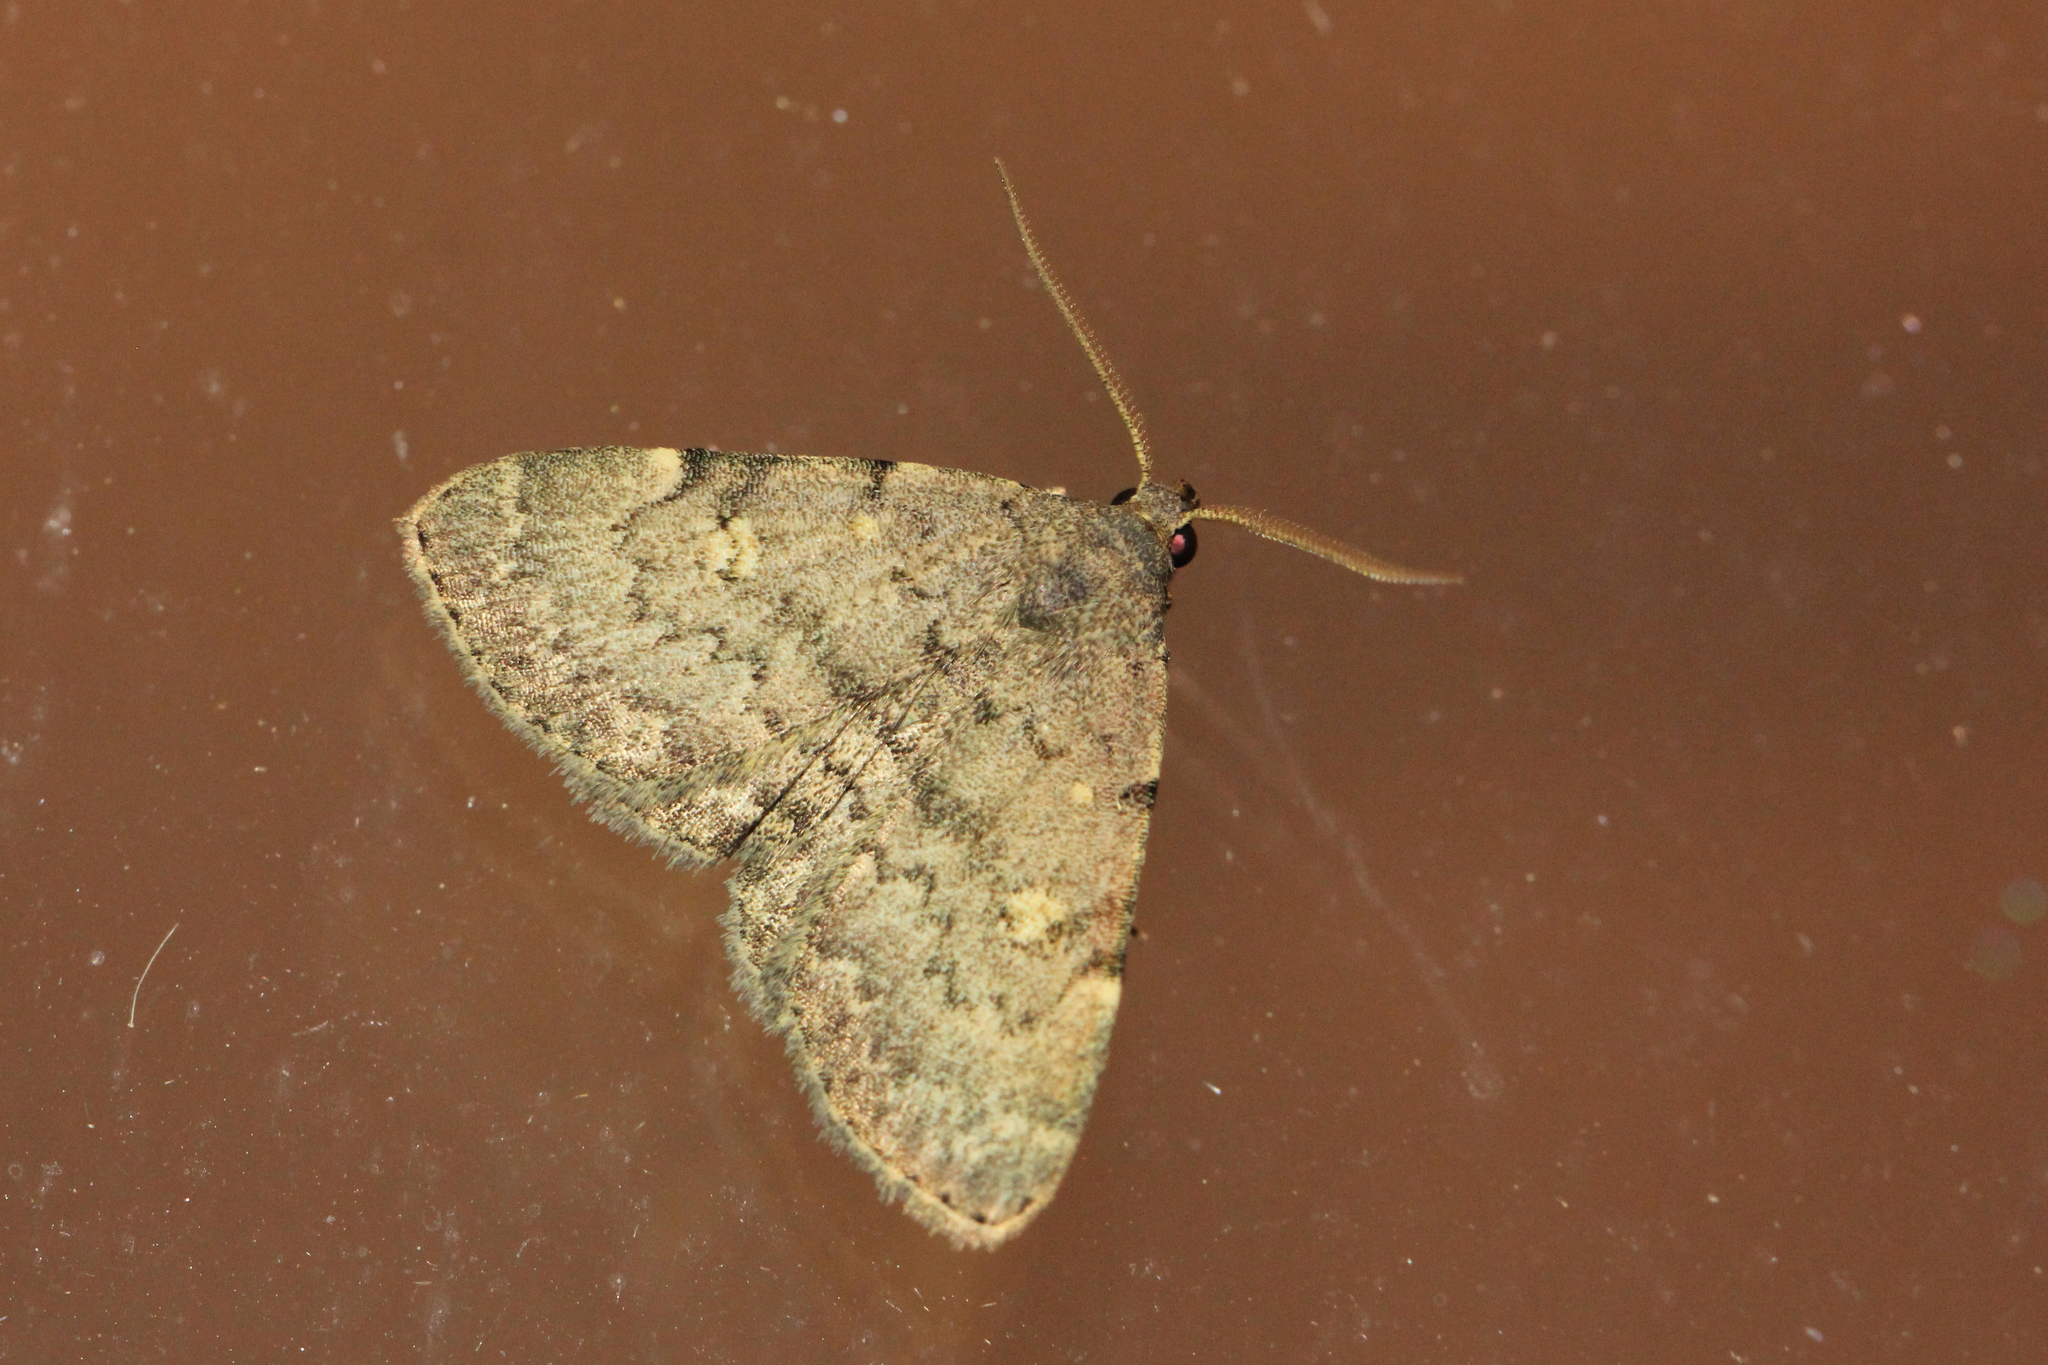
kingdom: Animalia
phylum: Arthropoda
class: Insecta
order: Lepidoptera
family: Erebidae
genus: Idia
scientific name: Idia aemula
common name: Common idia moth
